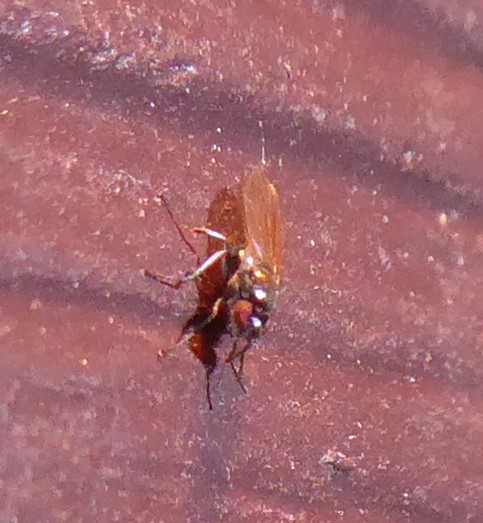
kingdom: Animalia
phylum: Arthropoda
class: Insecta
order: Diptera
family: Ephydridae
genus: Hydrellia
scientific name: Hydrellia tritici
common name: Shore fly
